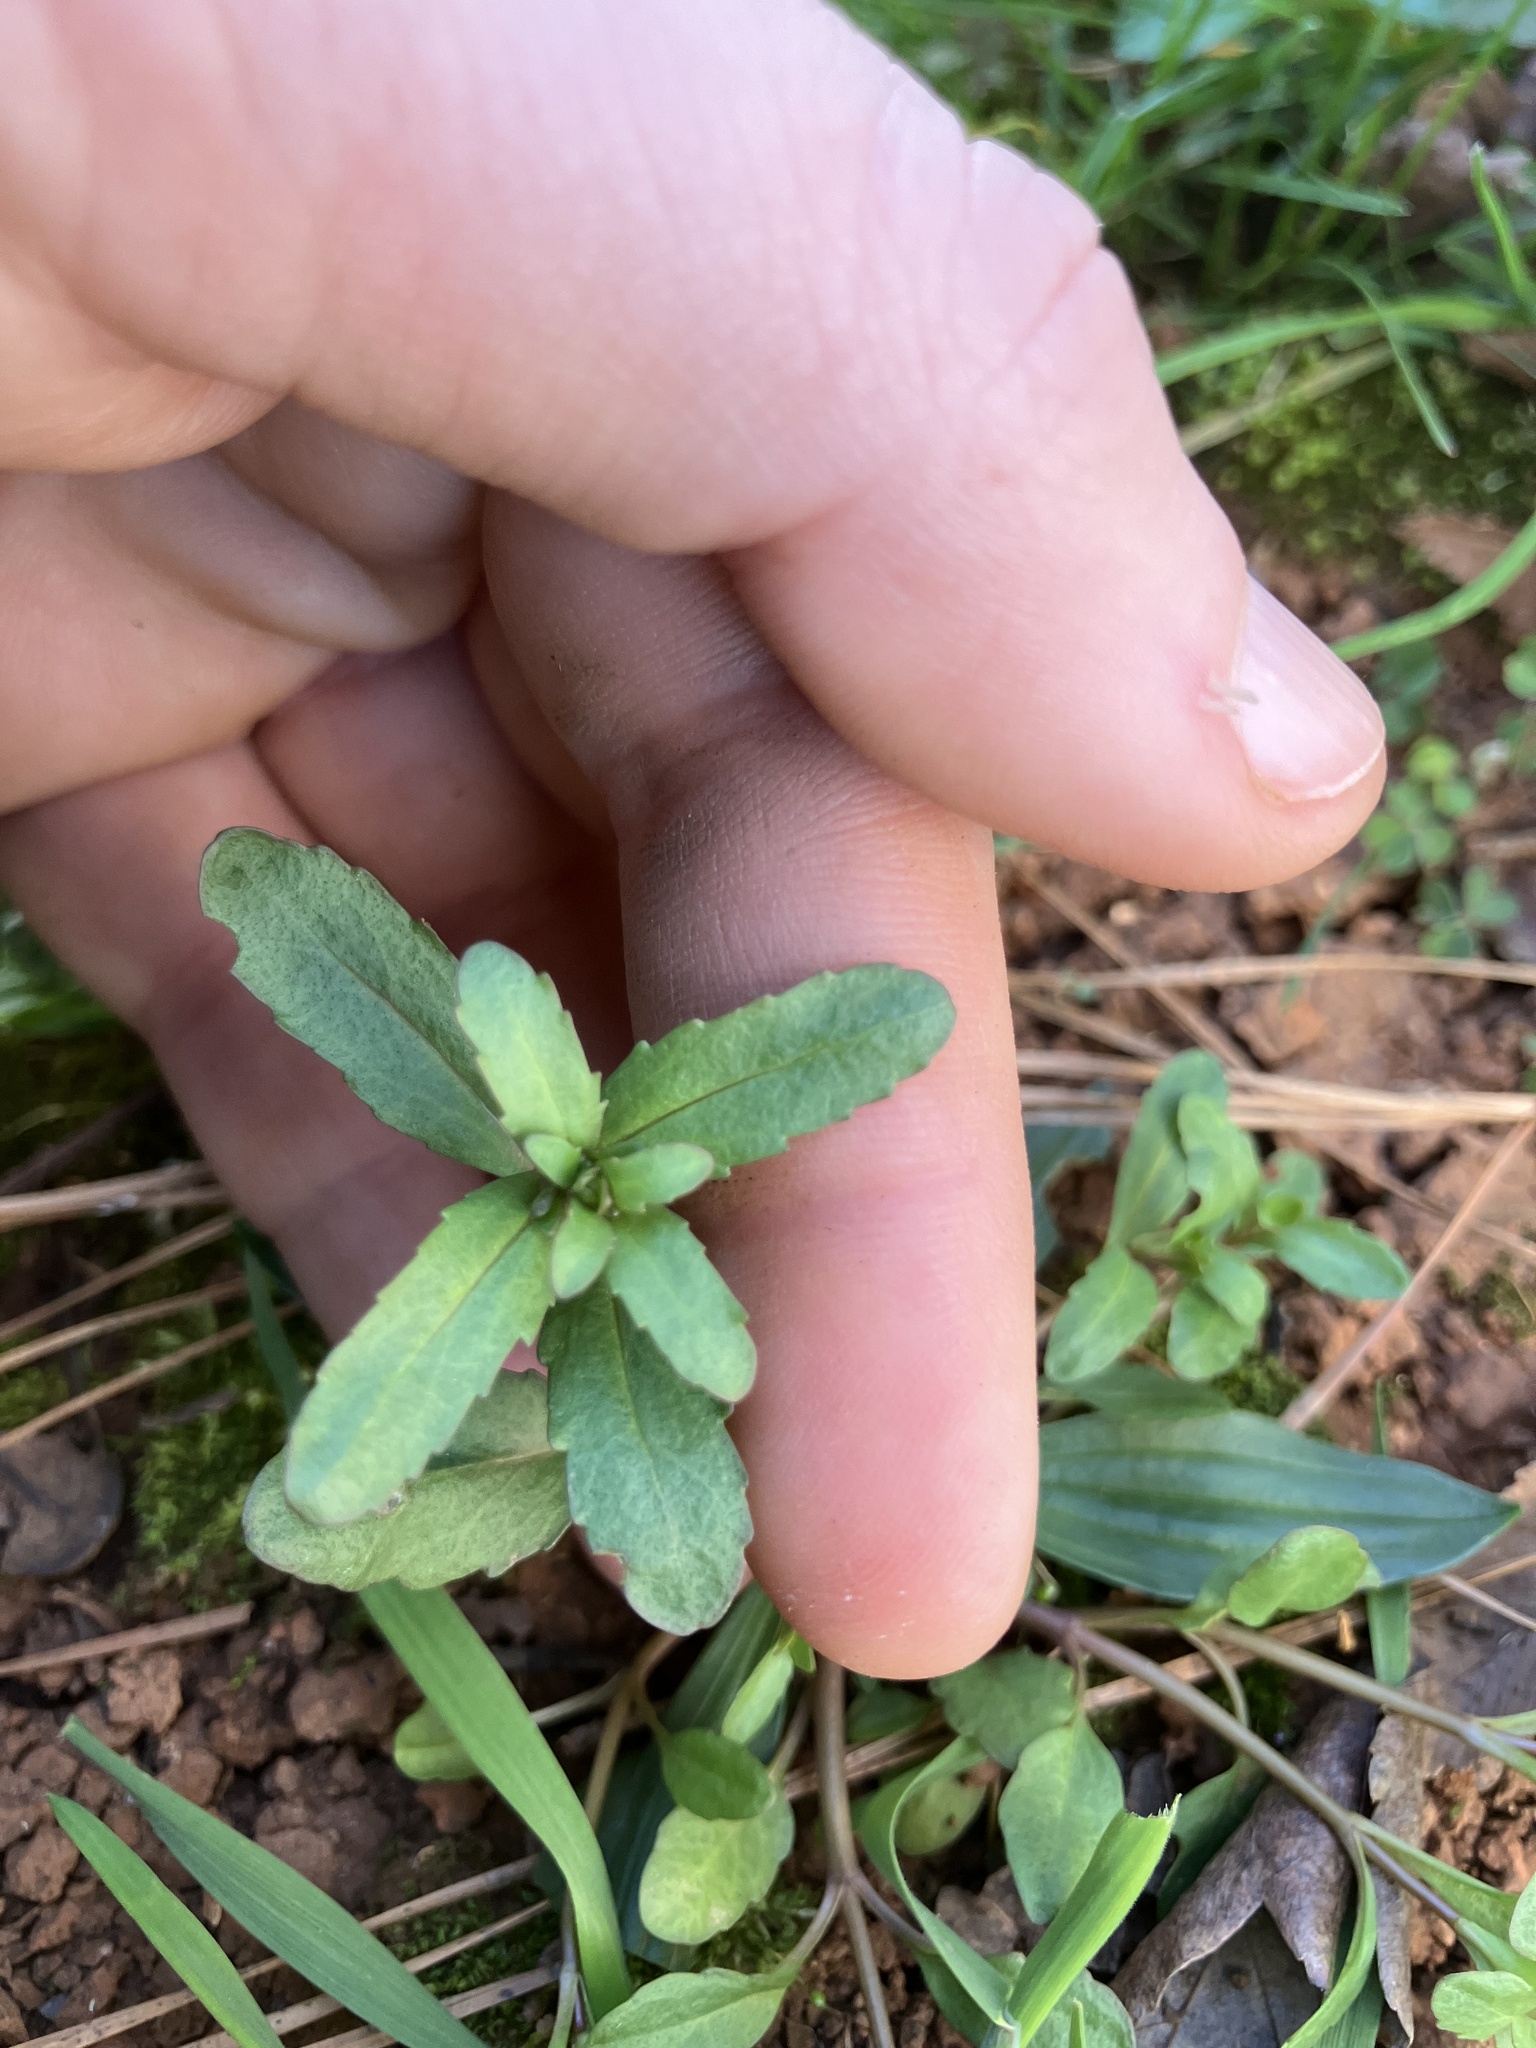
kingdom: Plantae
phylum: Tracheophyta
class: Magnoliopsida
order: Lamiales
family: Plantaginaceae
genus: Veronica
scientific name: Veronica peregrina
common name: Neckweed
